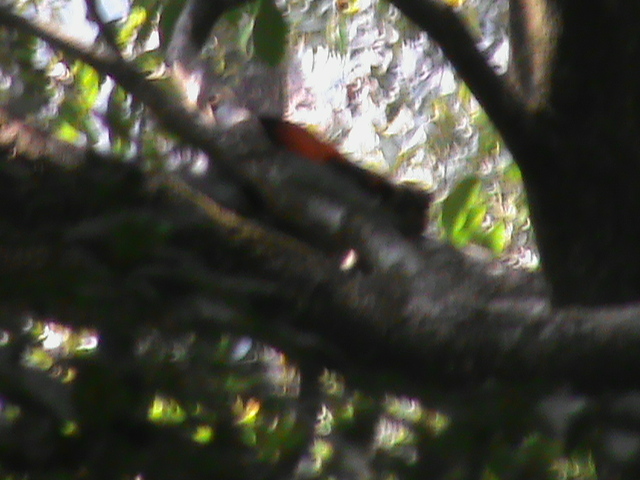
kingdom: Animalia
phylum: Chordata
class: Mammalia
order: Rodentia
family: Sciuridae
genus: Ratufa
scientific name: Ratufa indica
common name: Indian giant squirrel
